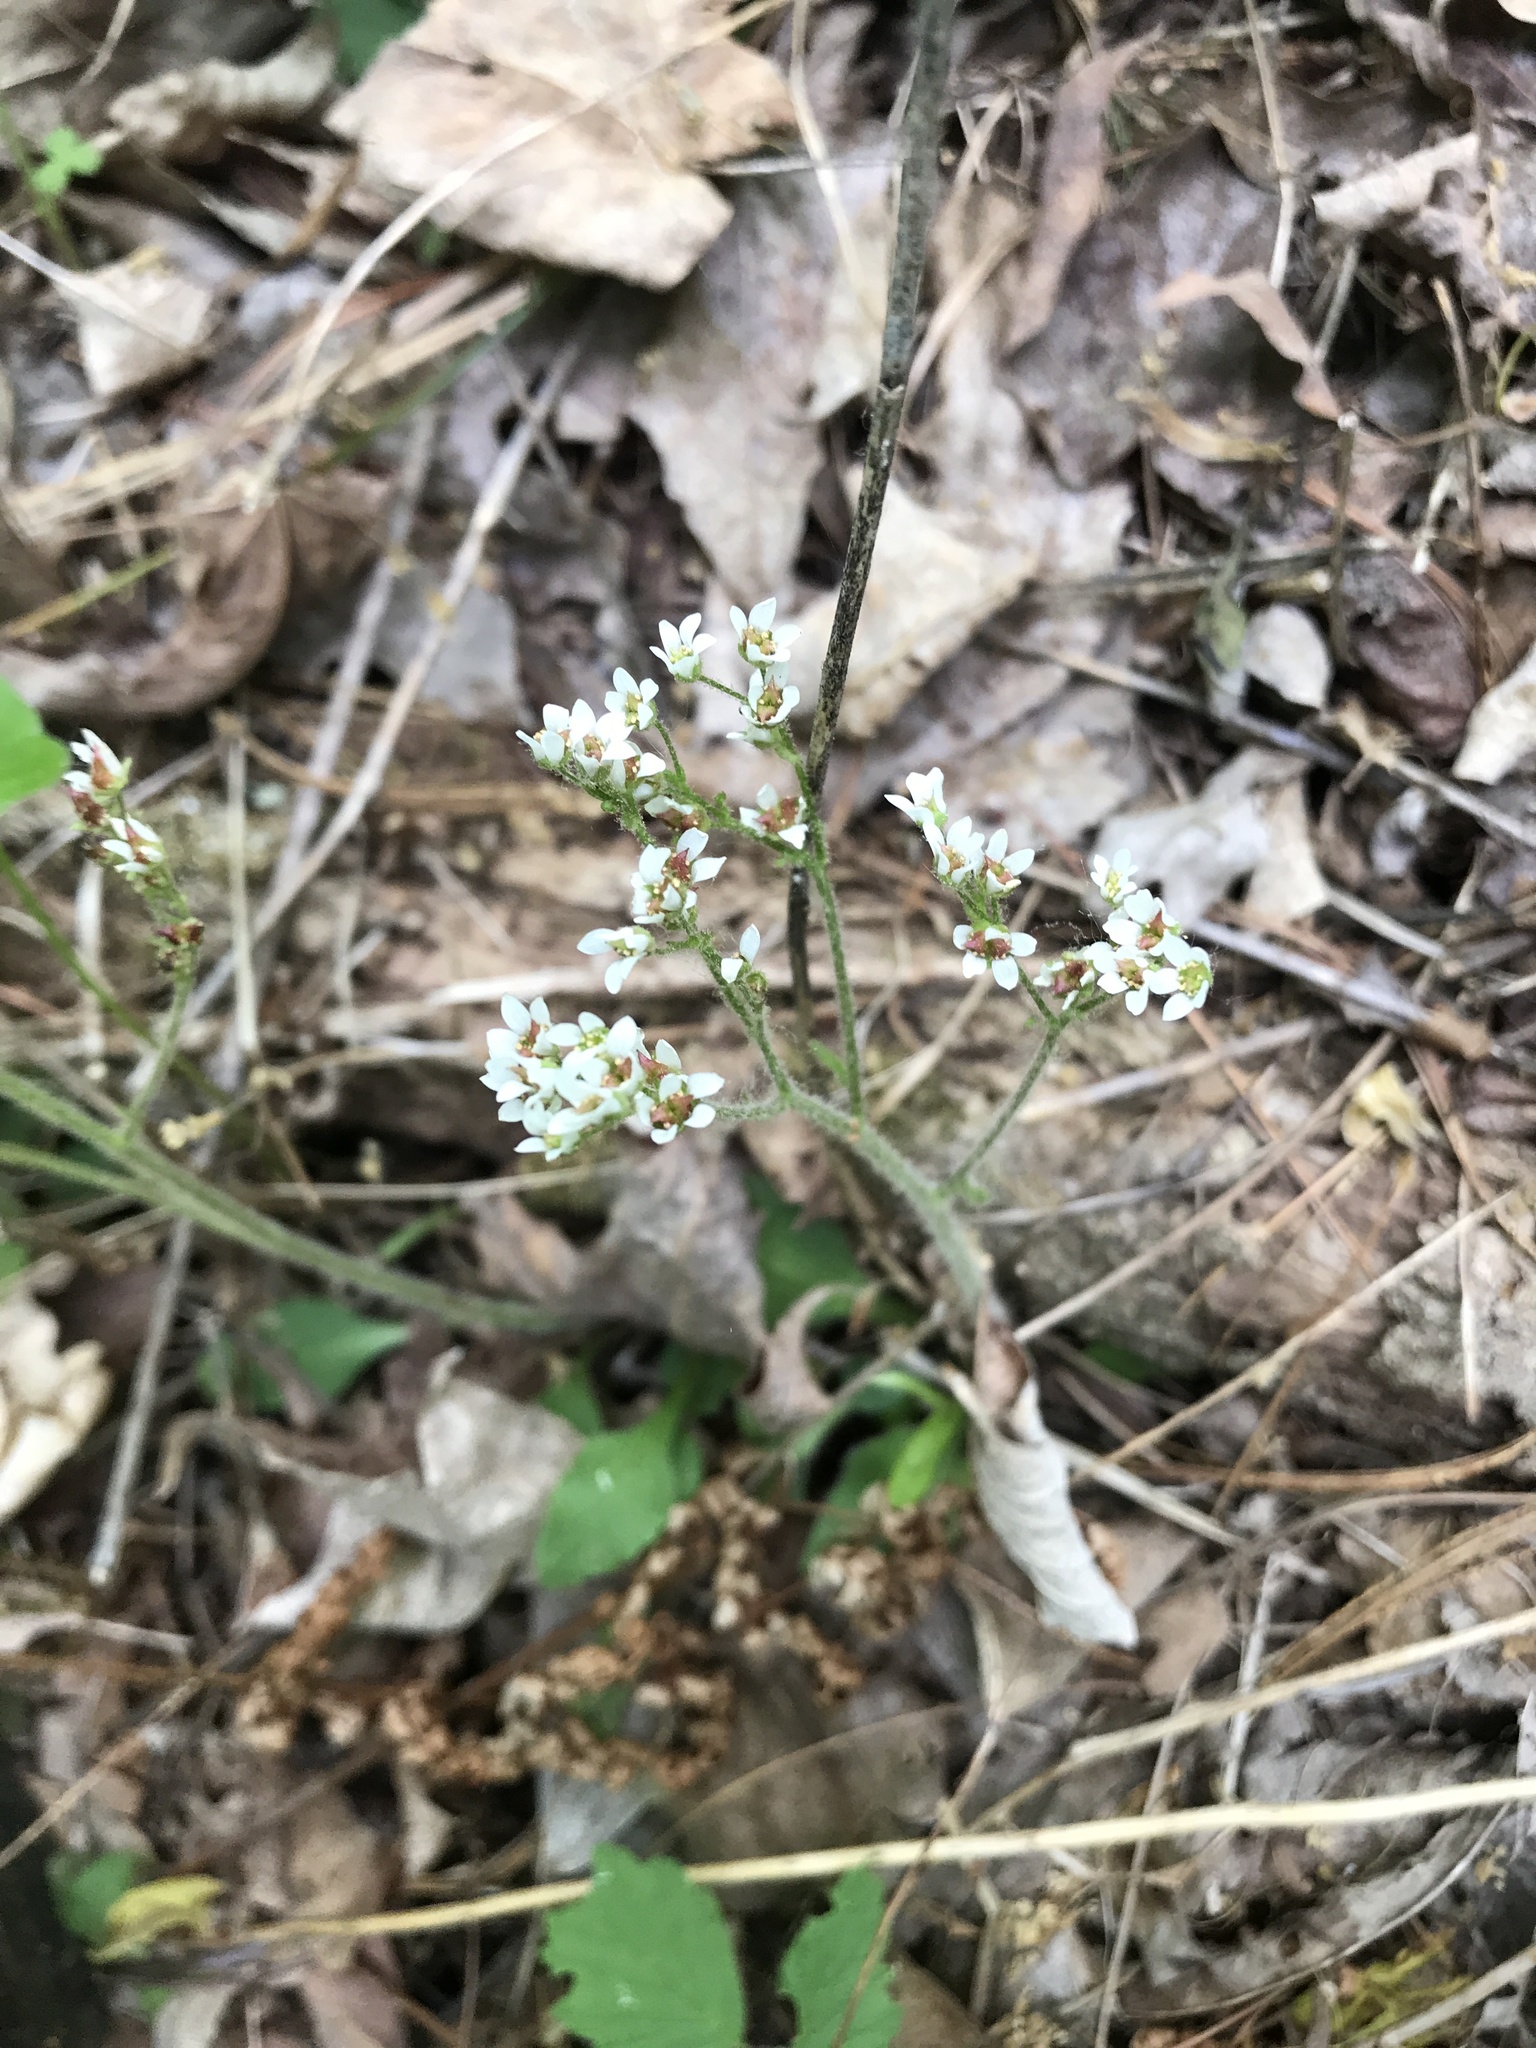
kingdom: Plantae
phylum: Tracheophyta
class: Magnoliopsida
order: Saxifragales
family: Saxifragaceae
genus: Micranthes
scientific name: Micranthes virginiensis
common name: Early saxifrage
